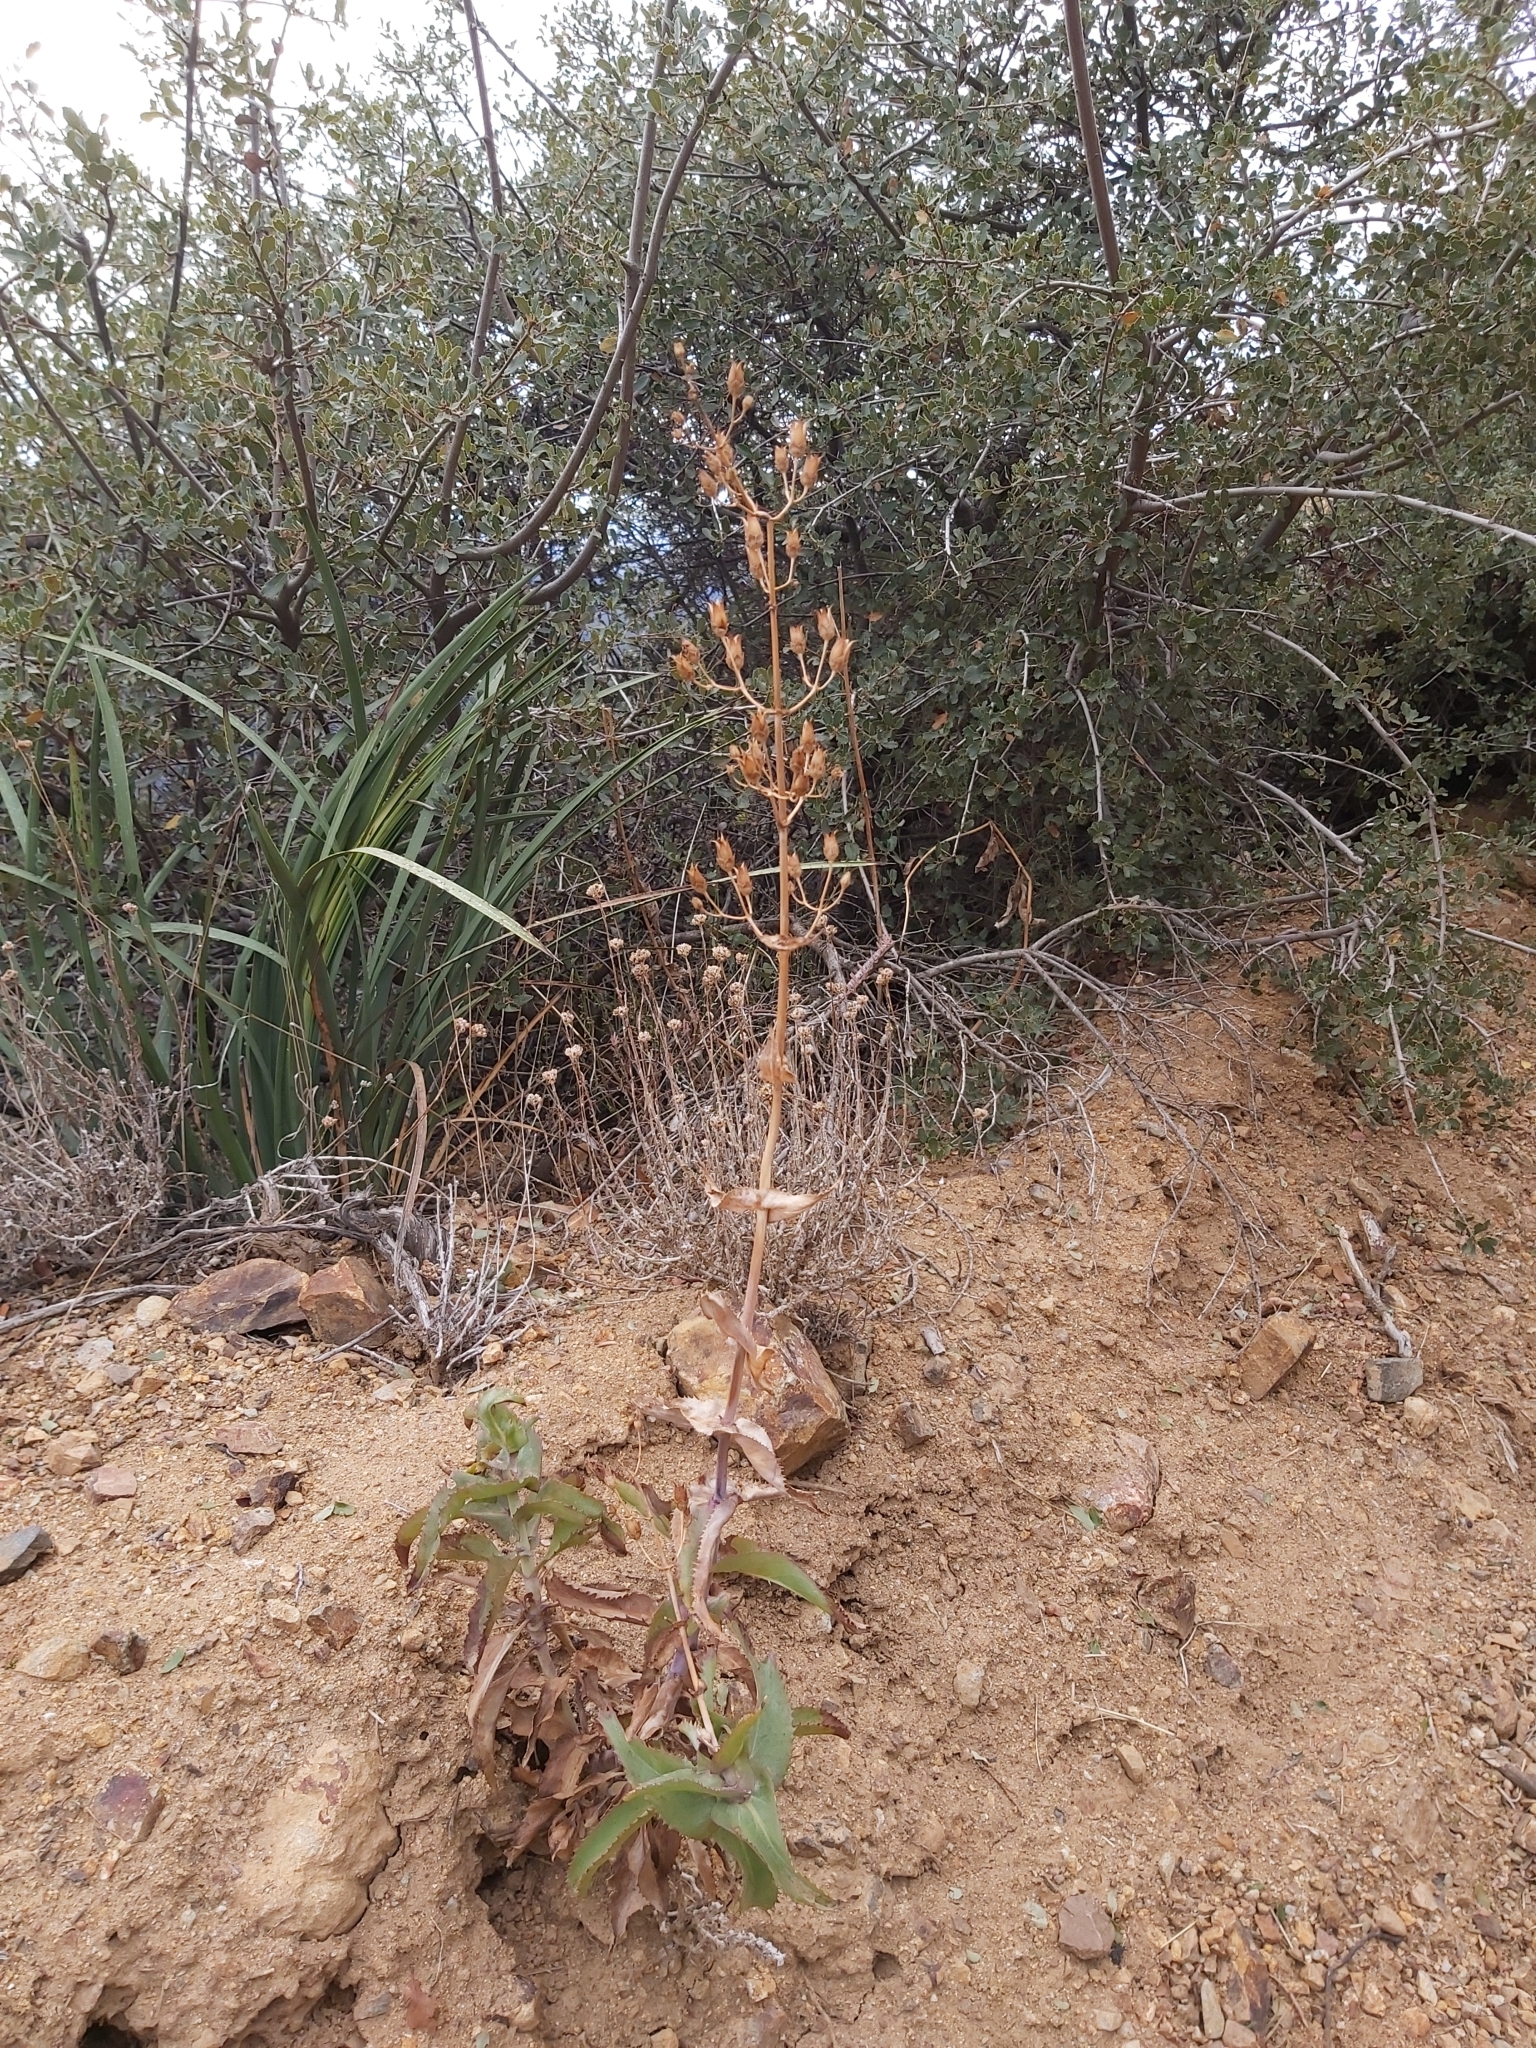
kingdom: Plantae
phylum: Tracheophyta
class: Magnoliopsida
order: Lamiales
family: Plantaginaceae
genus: Penstemon
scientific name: Penstemon spectabilis
